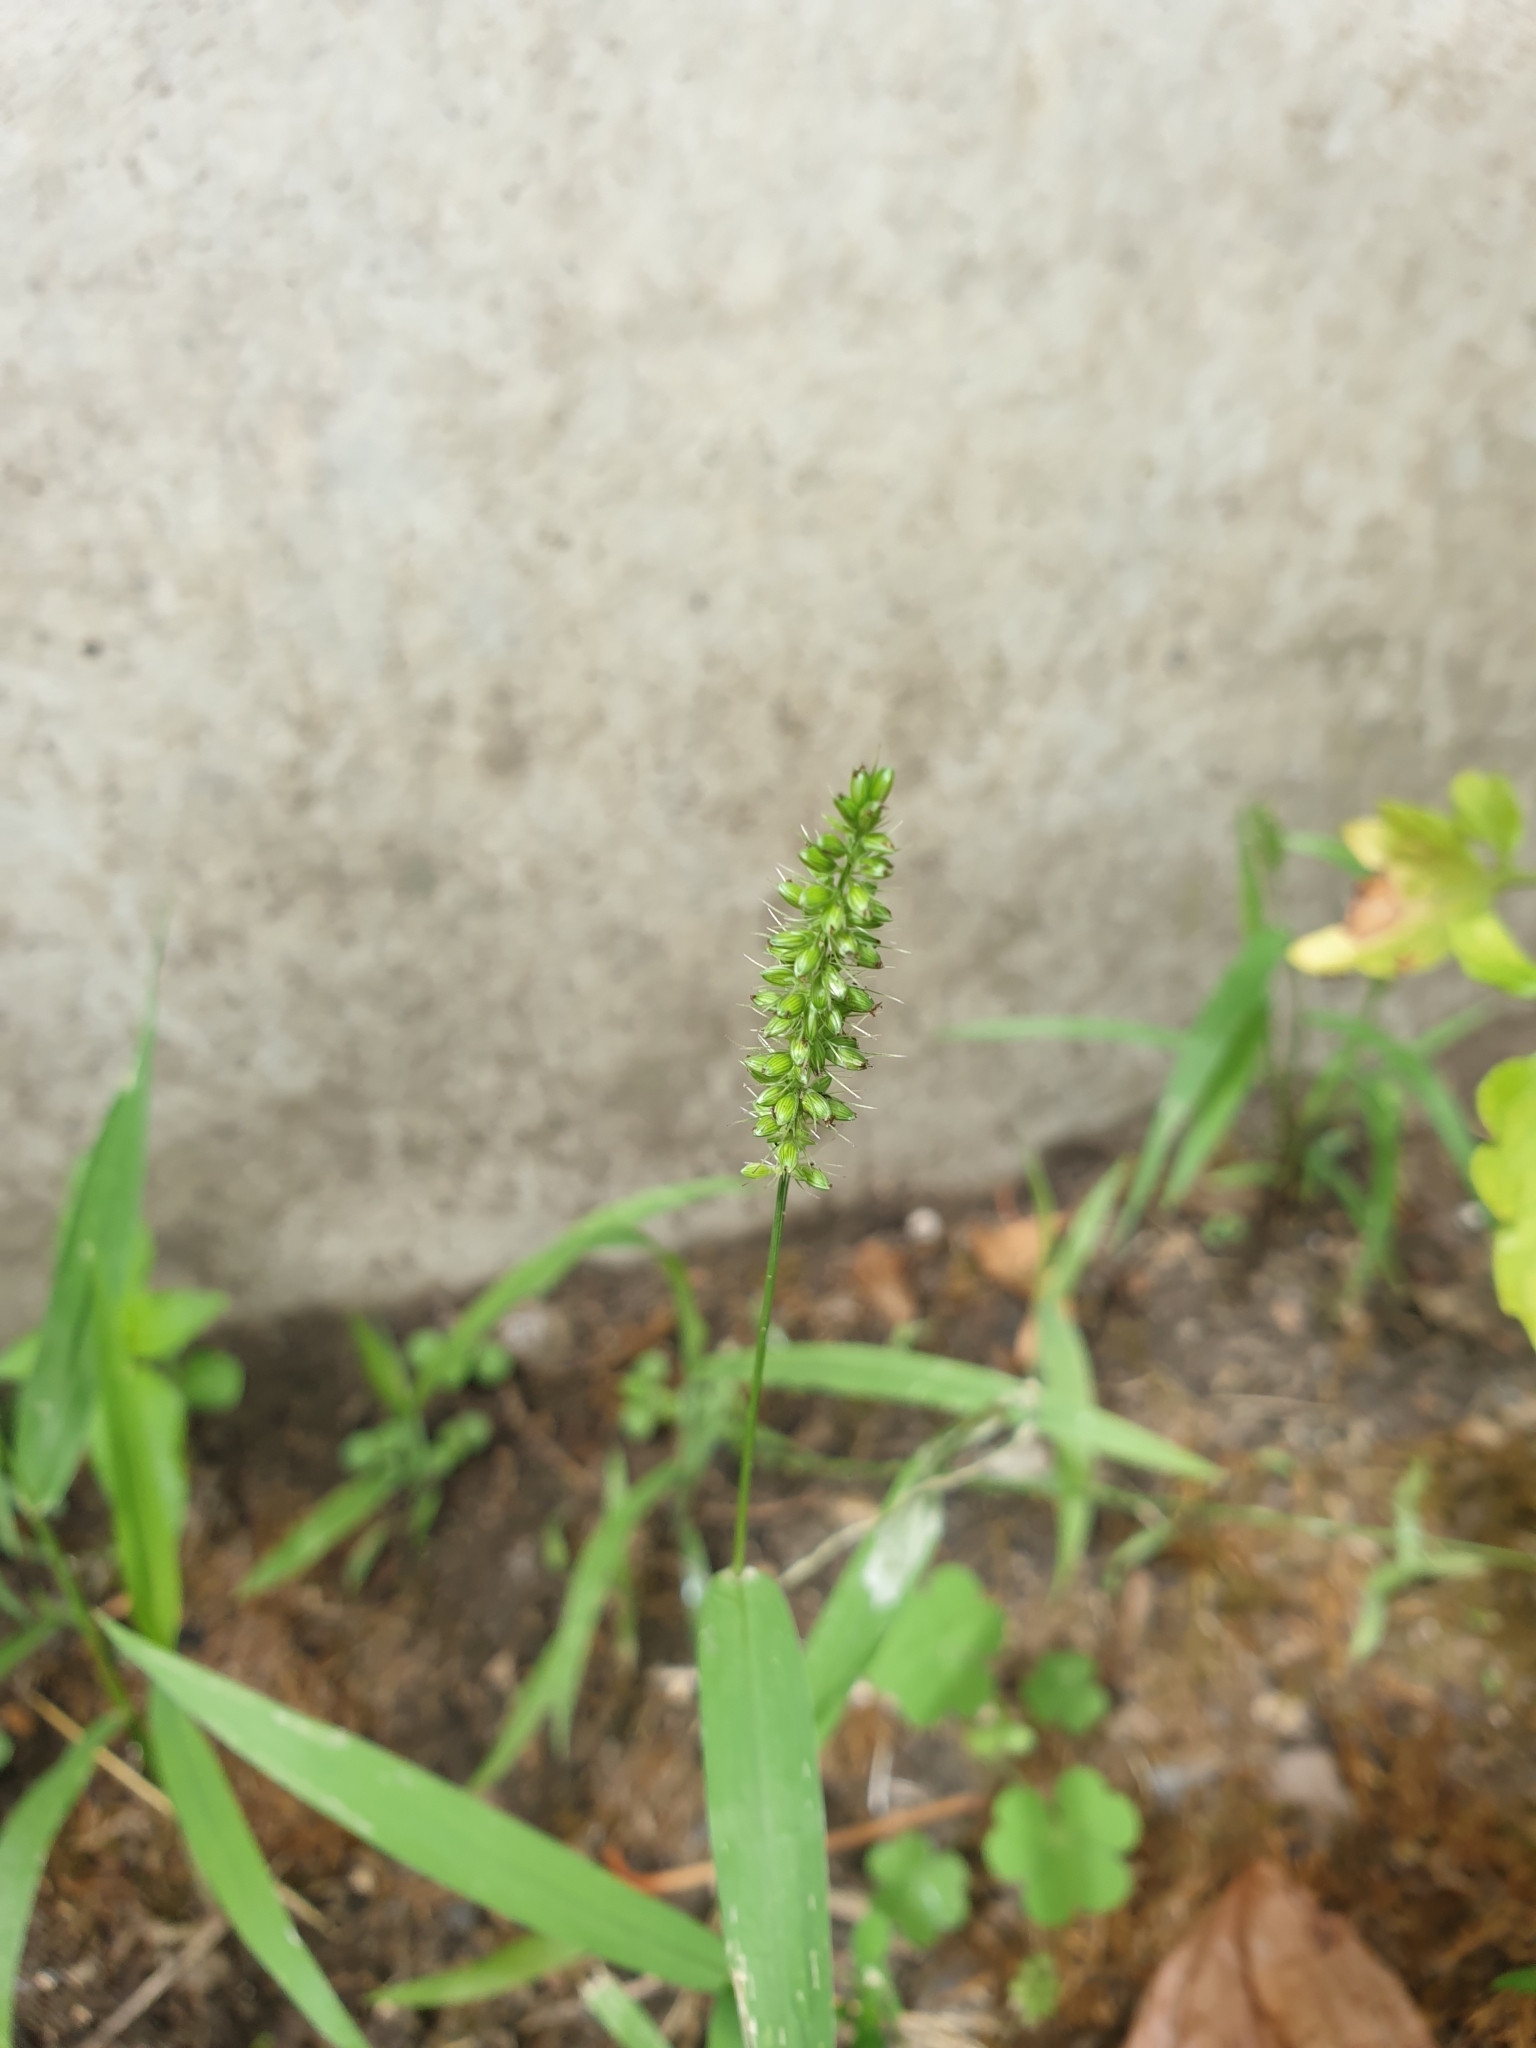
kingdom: Plantae
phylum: Tracheophyta
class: Liliopsida
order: Poales
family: Poaceae
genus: Setaria
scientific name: Setaria verticillata
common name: Hooked bristlegrass
